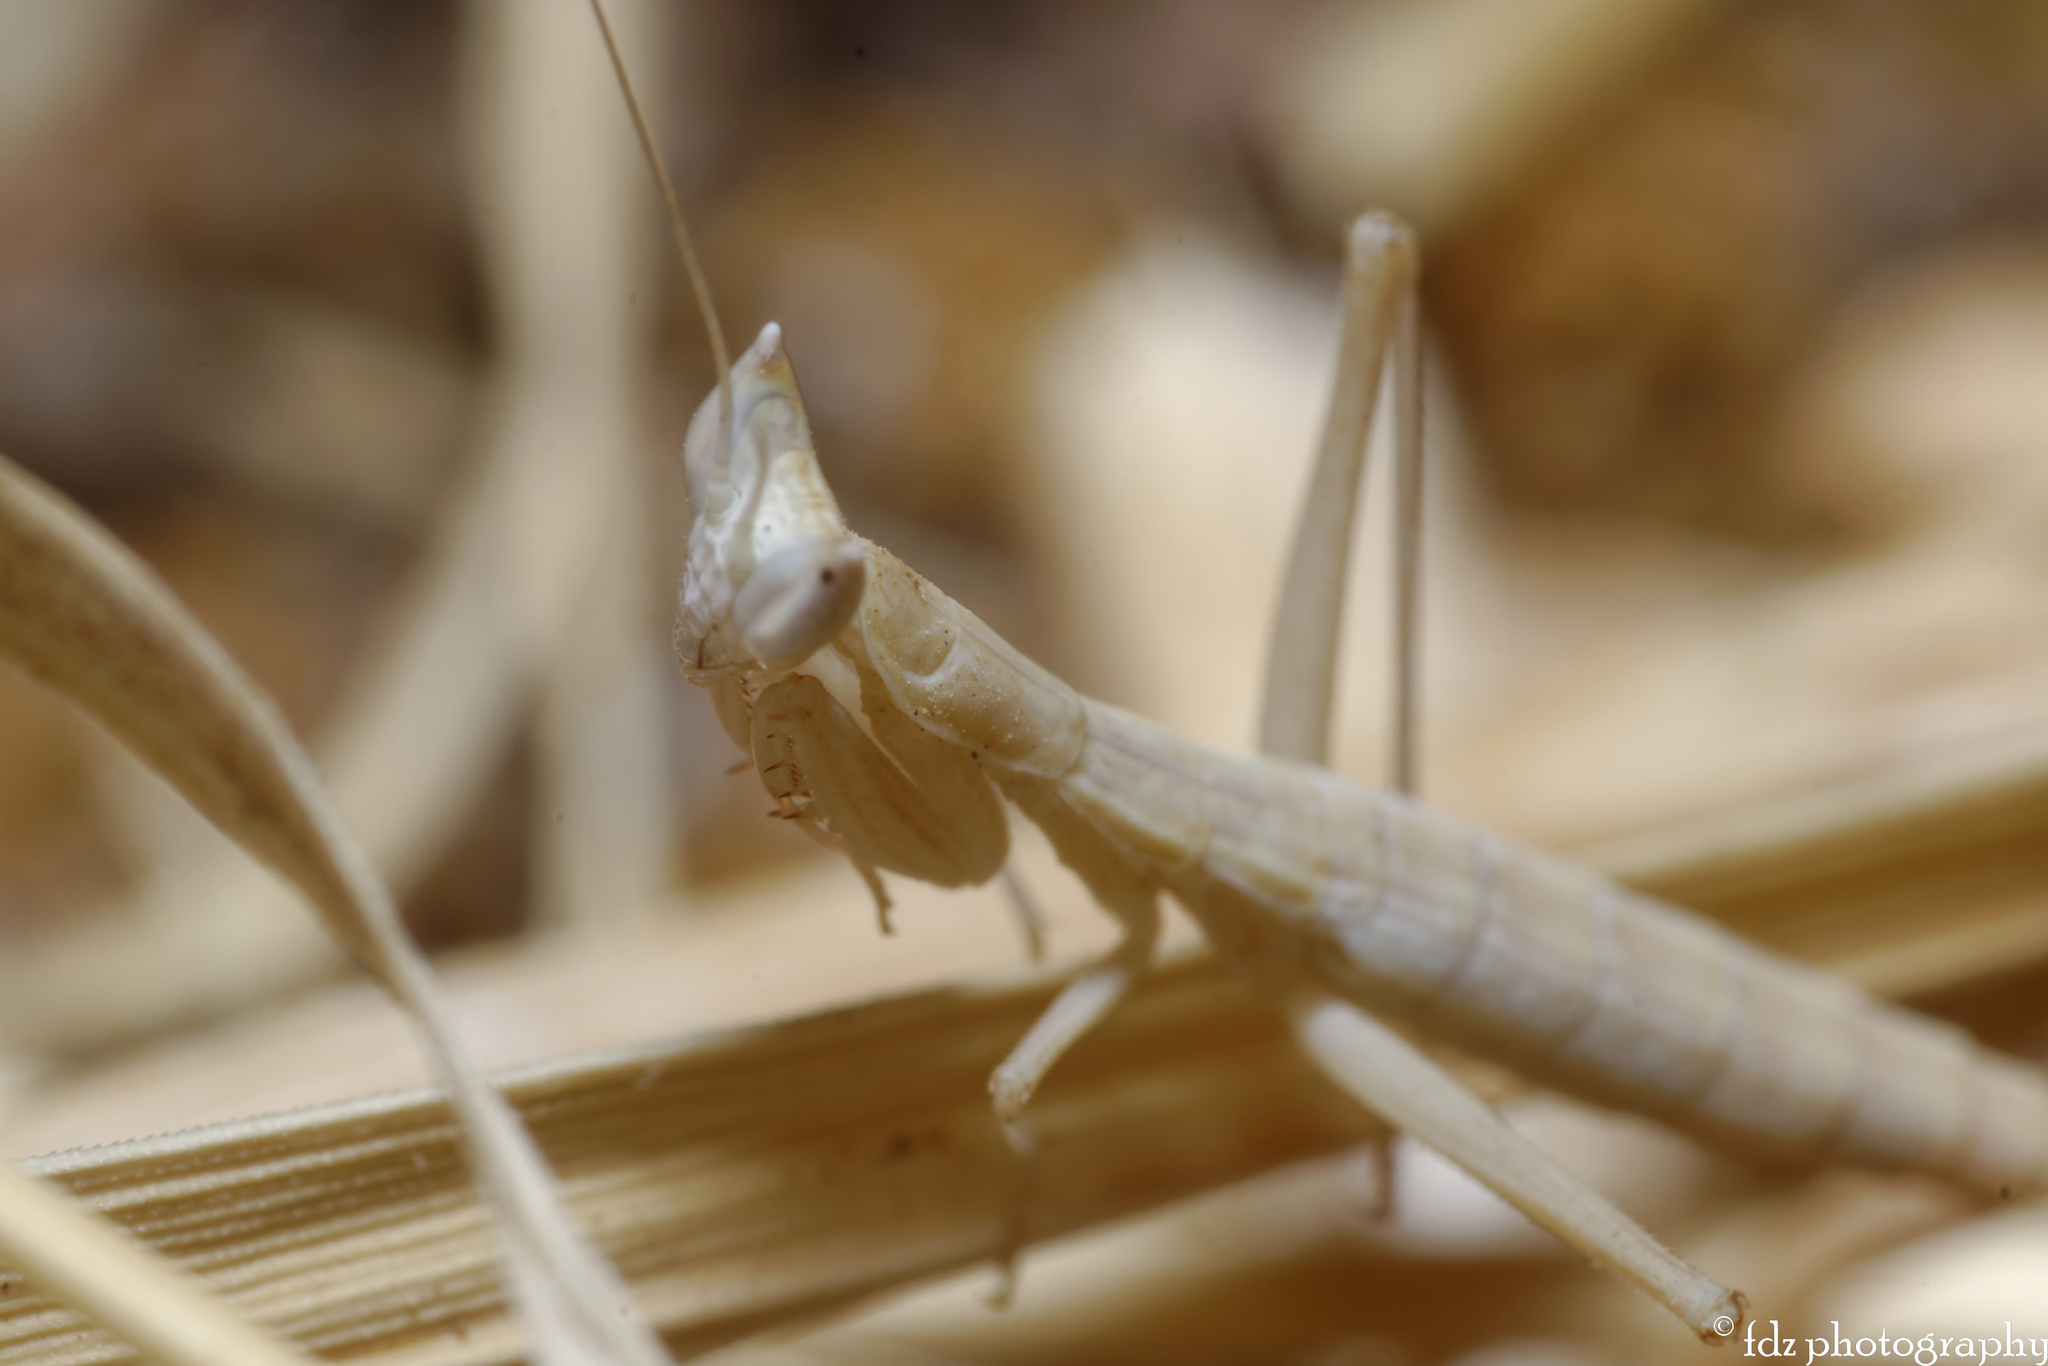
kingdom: Animalia
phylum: Arthropoda
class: Insecta
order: Mantodea
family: Amelidae
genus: Apteromantis
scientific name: Apteromantis aptera
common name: Wingless mantis
